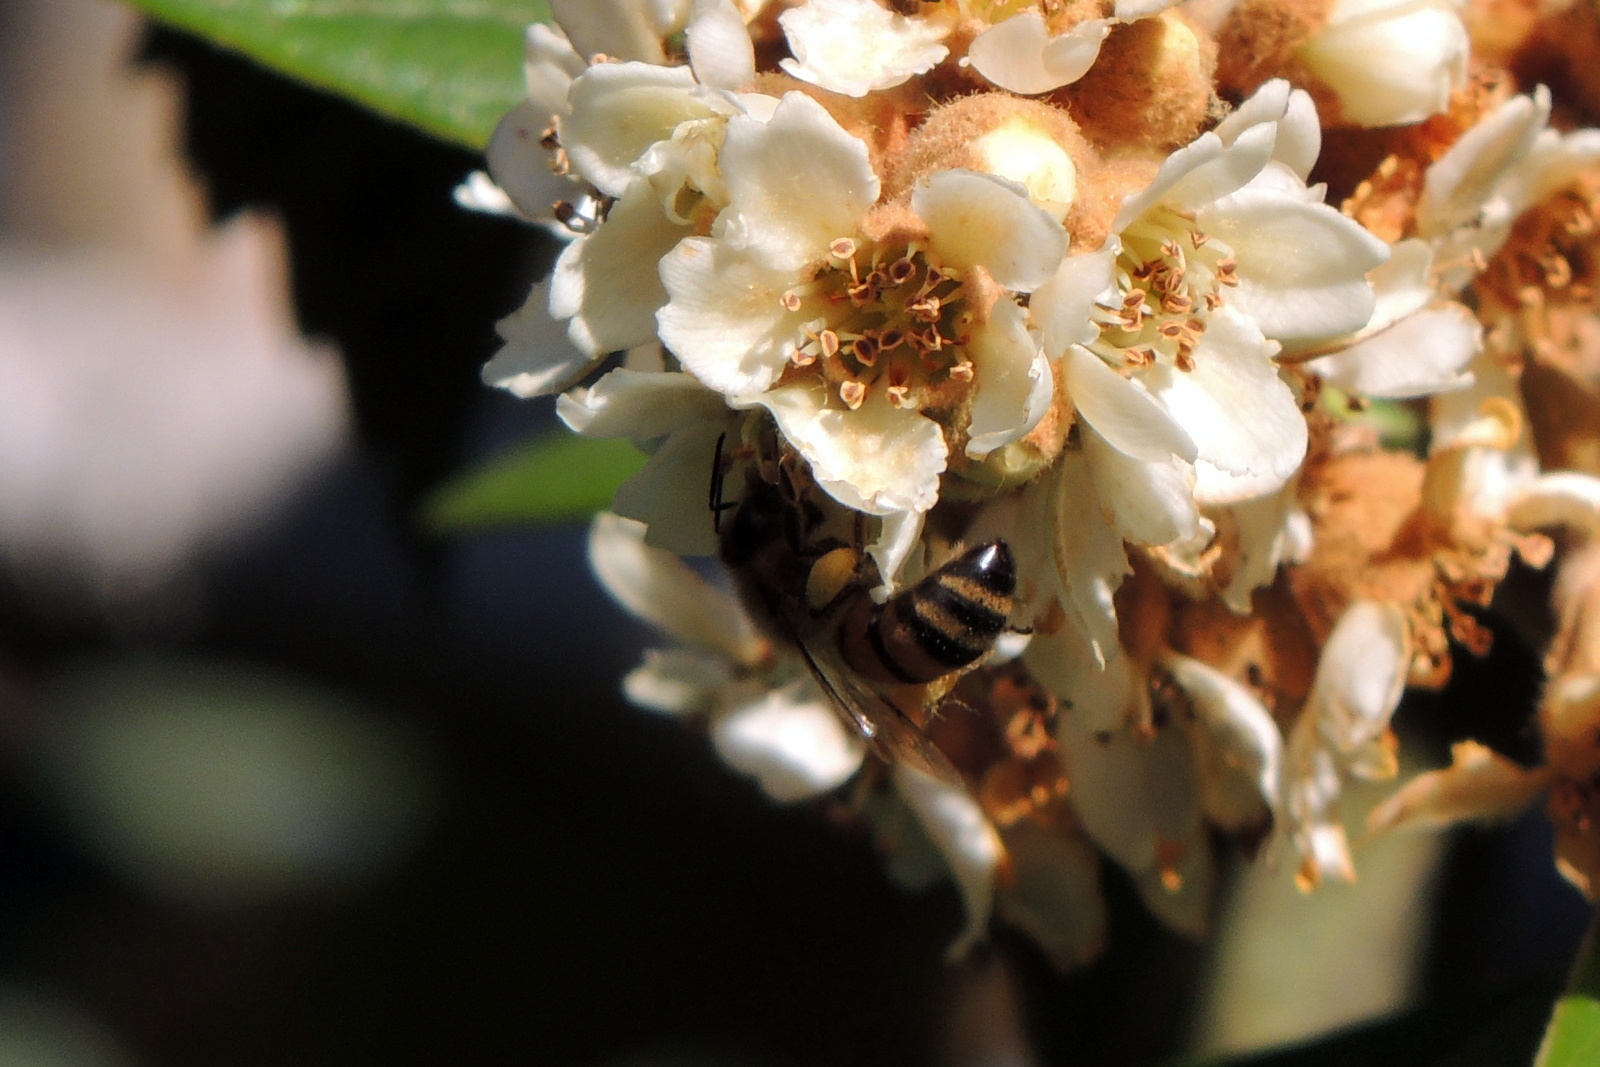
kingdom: Animalia
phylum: Arthropoda
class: Insecta
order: Hymenoptera
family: Apidae
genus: Apis
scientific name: Apis mellifera
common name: Honey bee
